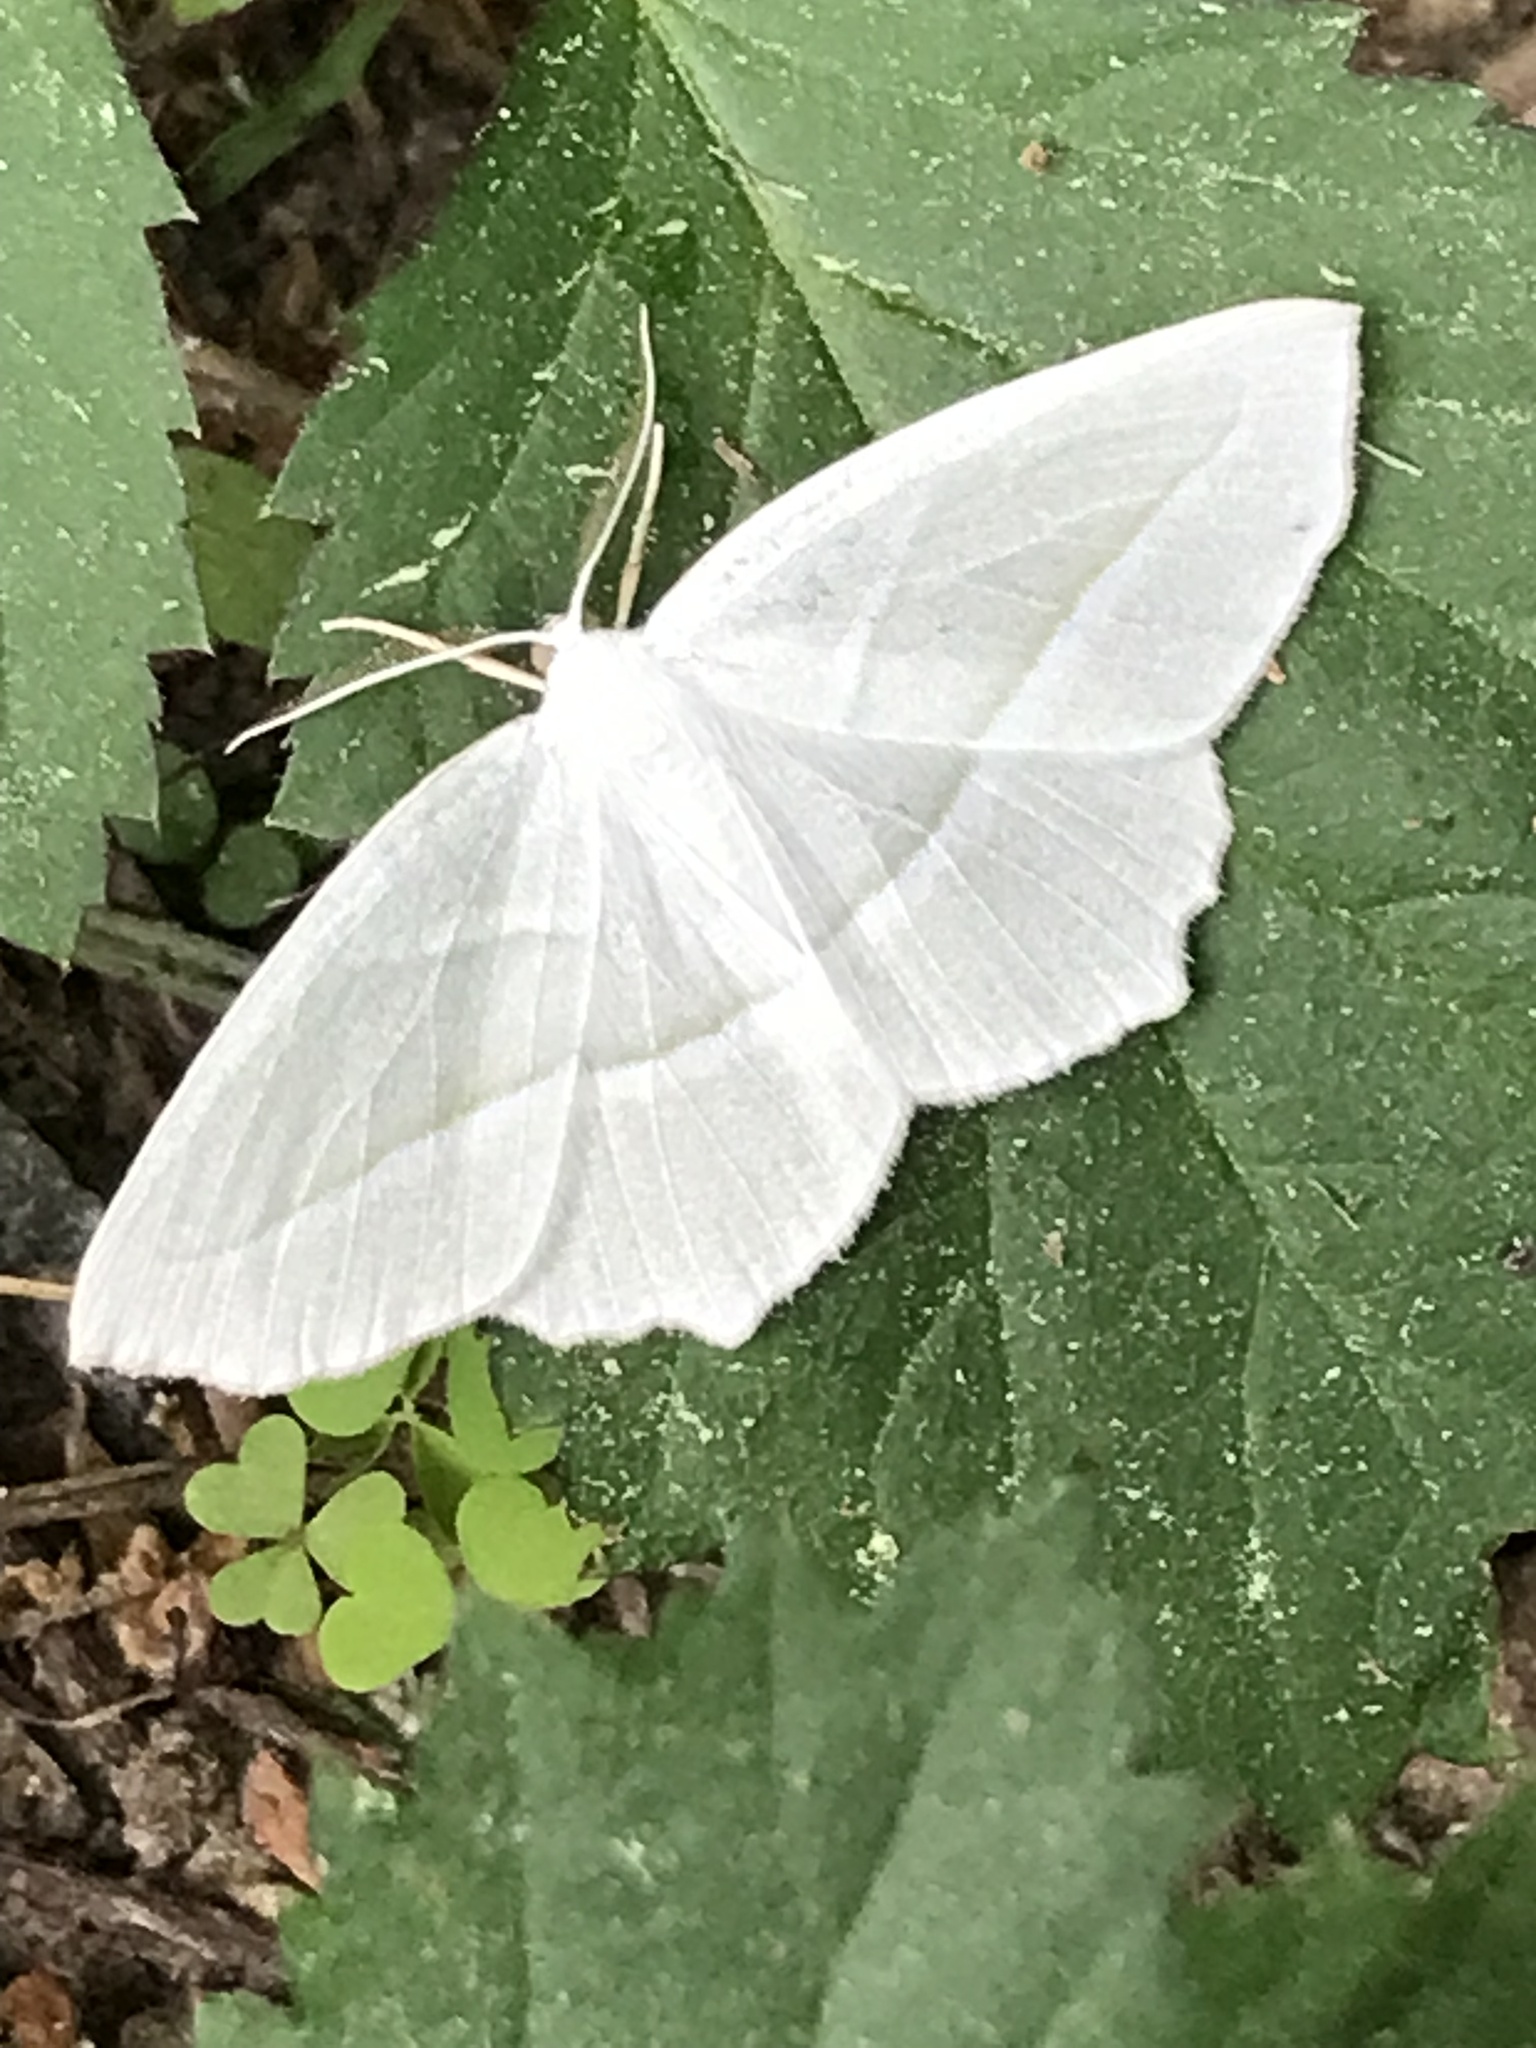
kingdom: Animalia
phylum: Arthropoda
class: Insecta
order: Lepidoptera
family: Geometridae
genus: Campaea
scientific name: Campaea perlata
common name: Fringed looper
